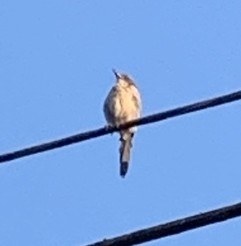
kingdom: Animalia
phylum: Chordata
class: Aves
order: Passeriformes
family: Corvidae
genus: Aphelocoma
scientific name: Aphelocoma californica
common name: California scrub-jay
